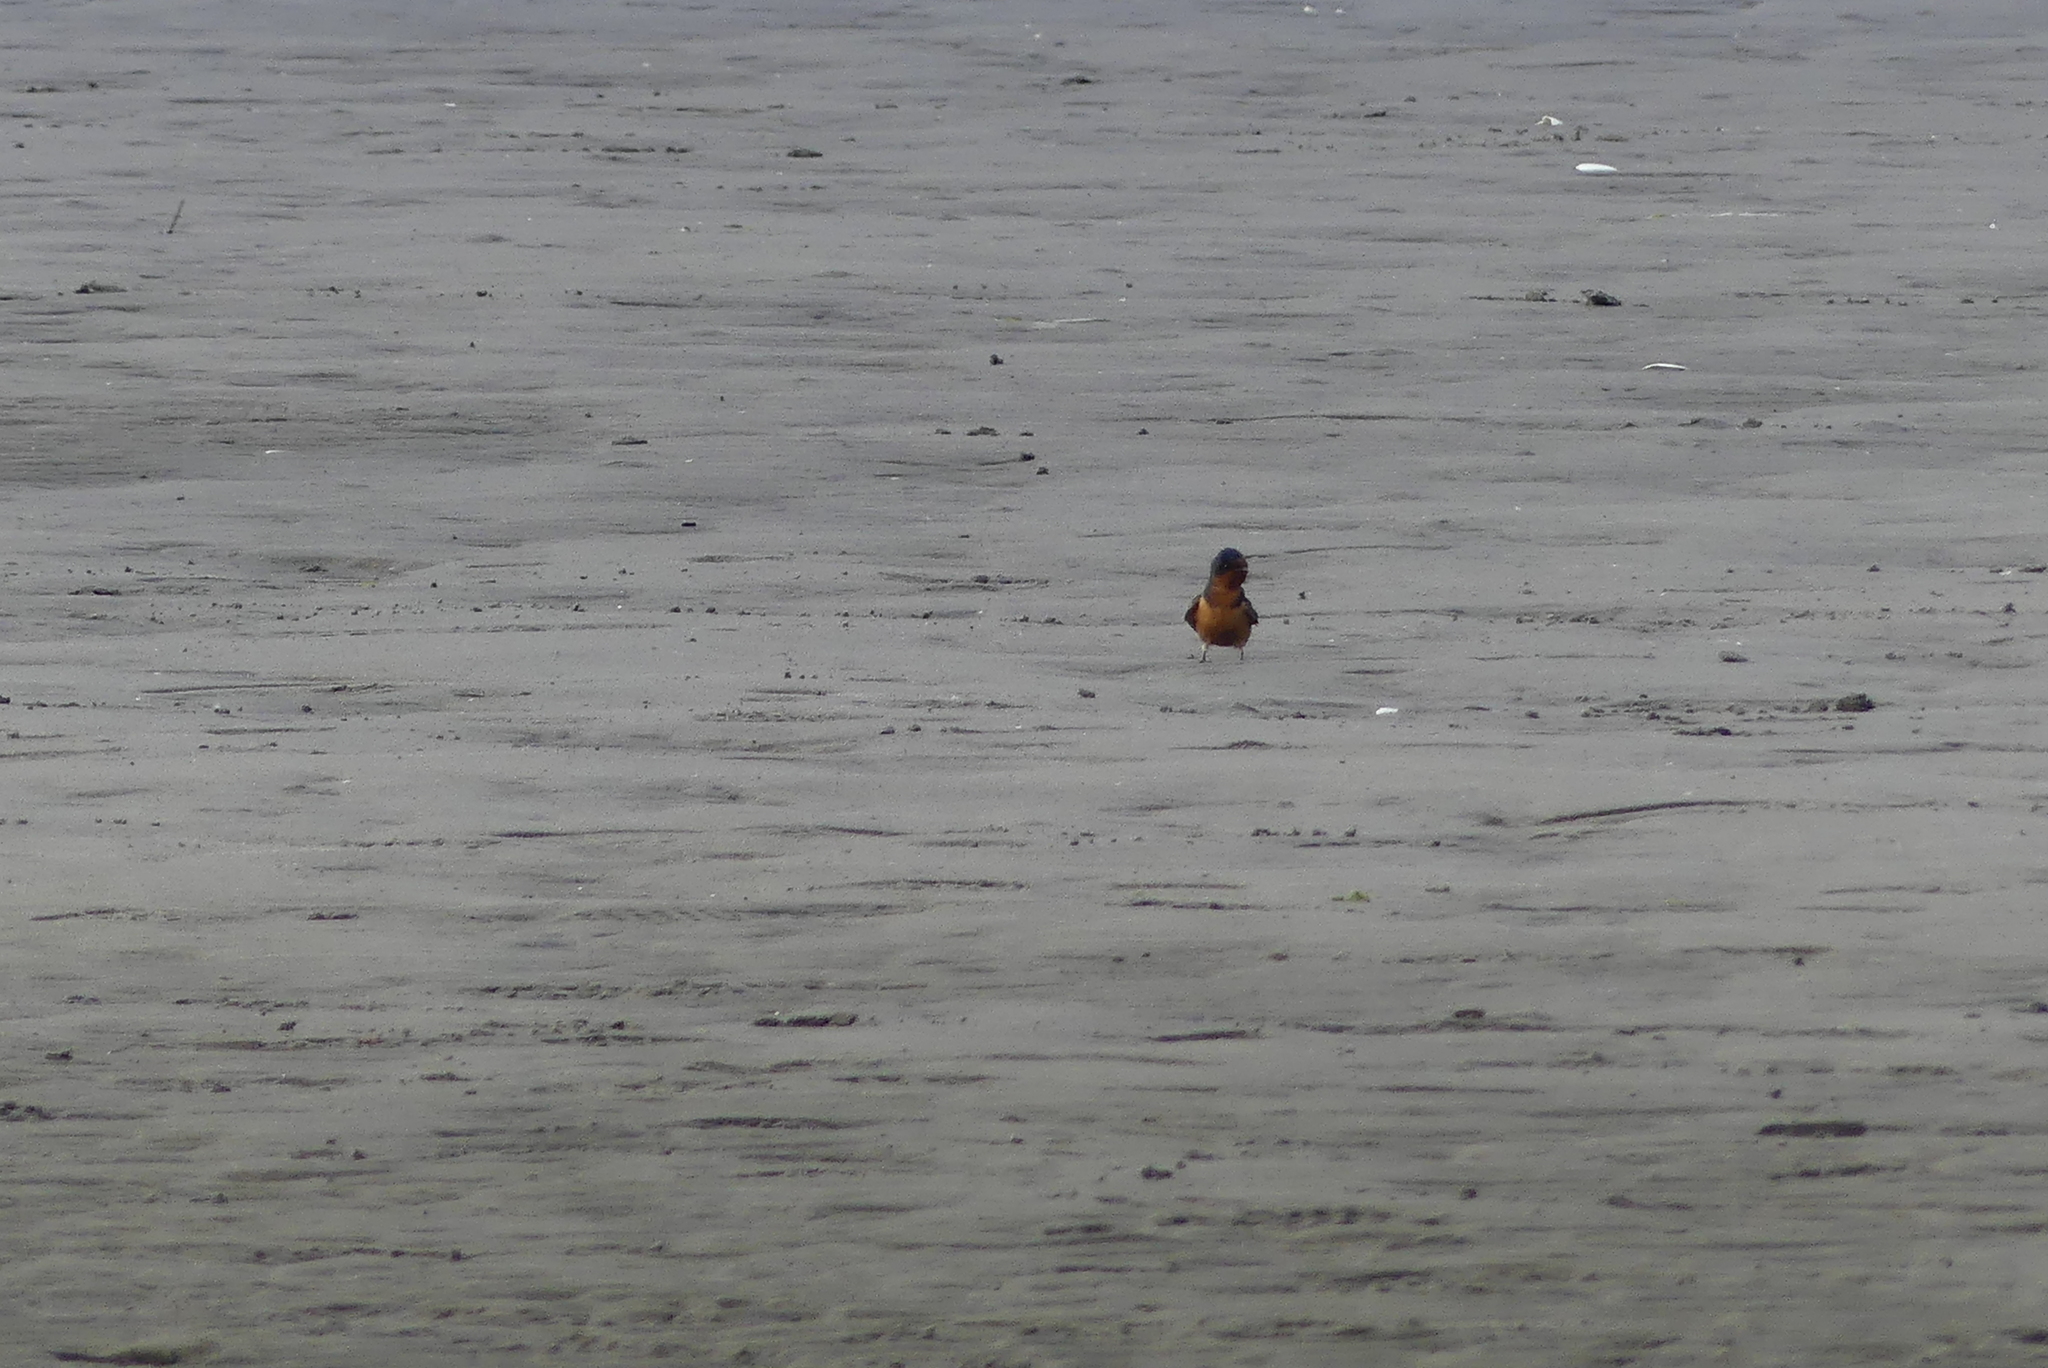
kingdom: Animalia
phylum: Chordata
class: Aves
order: Passeriformes
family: Hirundinidae
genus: Hirundo
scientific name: Hirundo rustica
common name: Barn swallow
